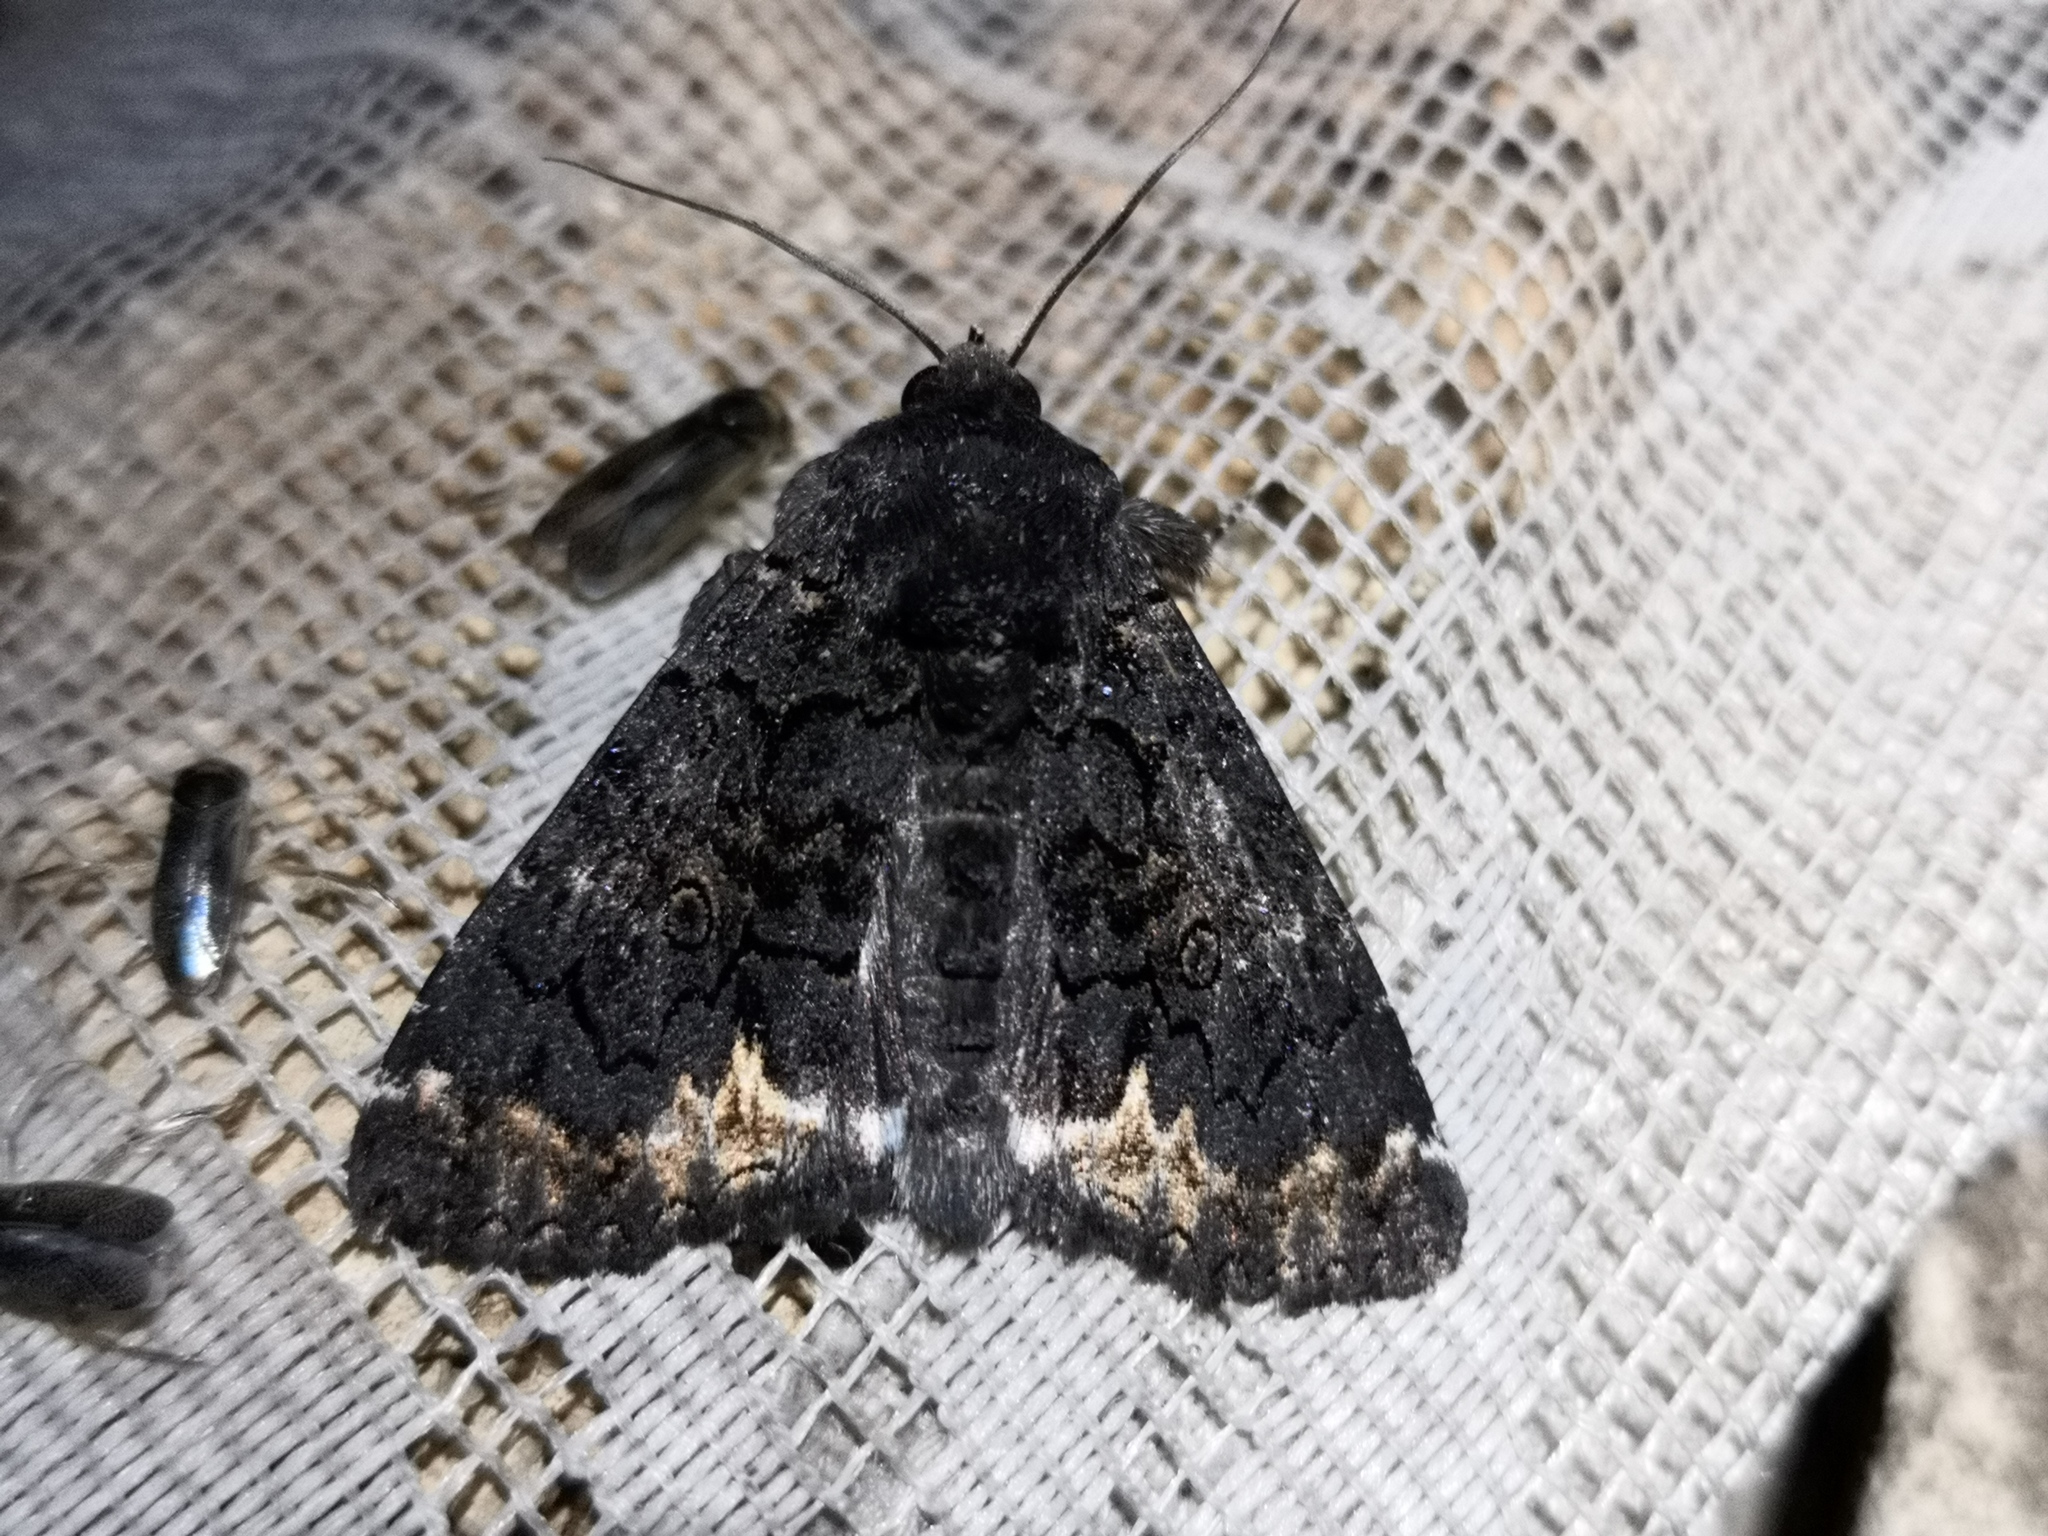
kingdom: Animalia
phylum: Arthropoda
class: Insecta
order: Lepidoptera
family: Erebidae
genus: Catephia
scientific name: Catephia alchymista
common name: Alchymist
